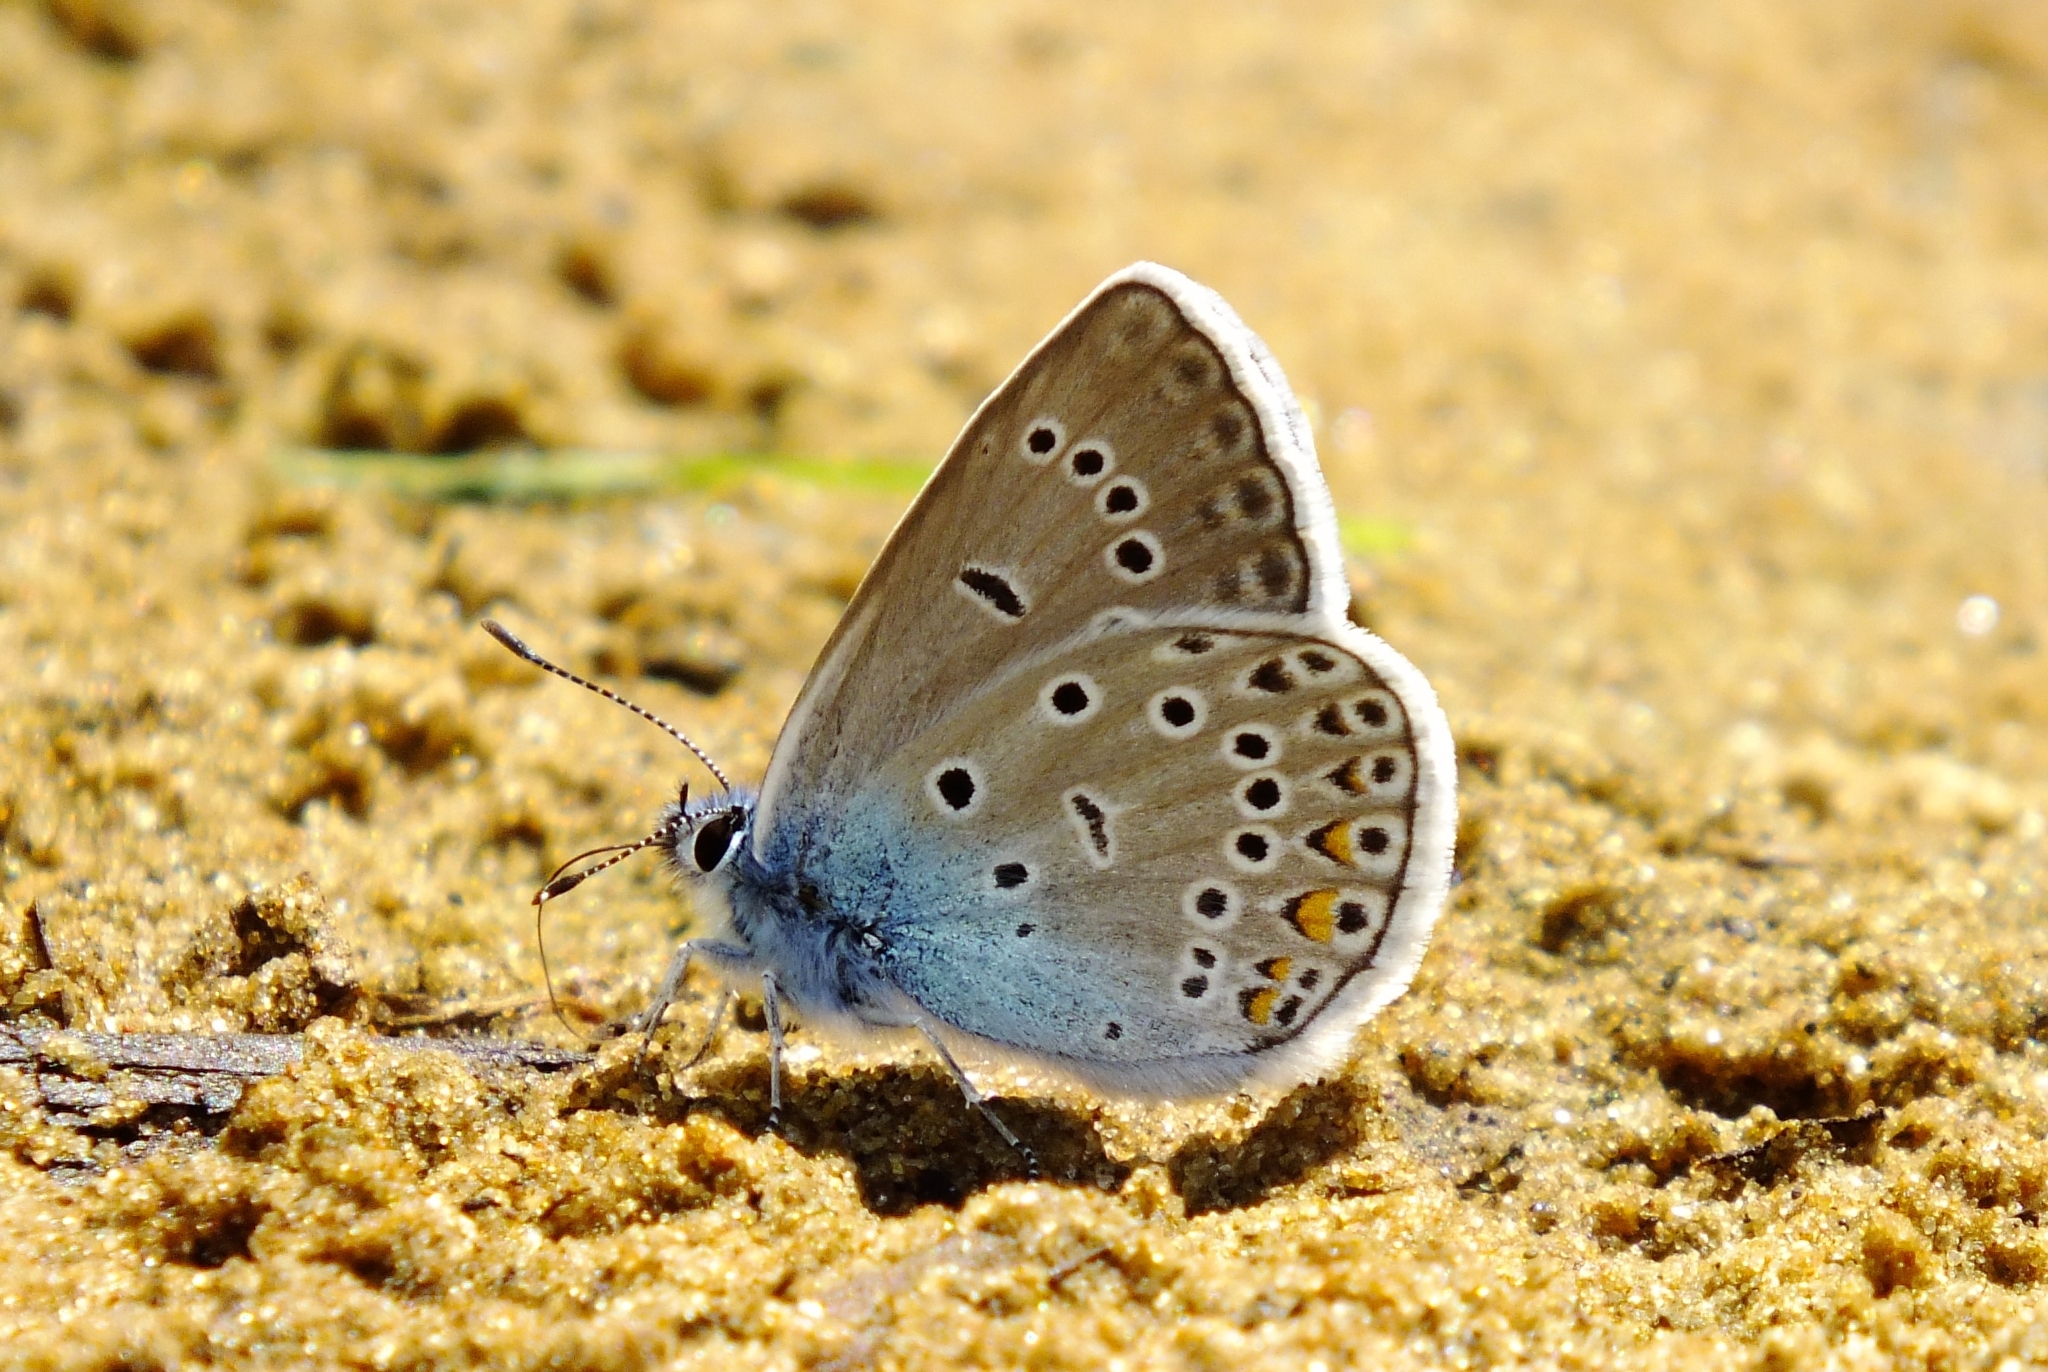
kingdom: Animalia
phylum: Arthropoda
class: Insecta
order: Lepidoptera
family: Lycaenidae
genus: Plebejus
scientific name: Plebejus amanda
